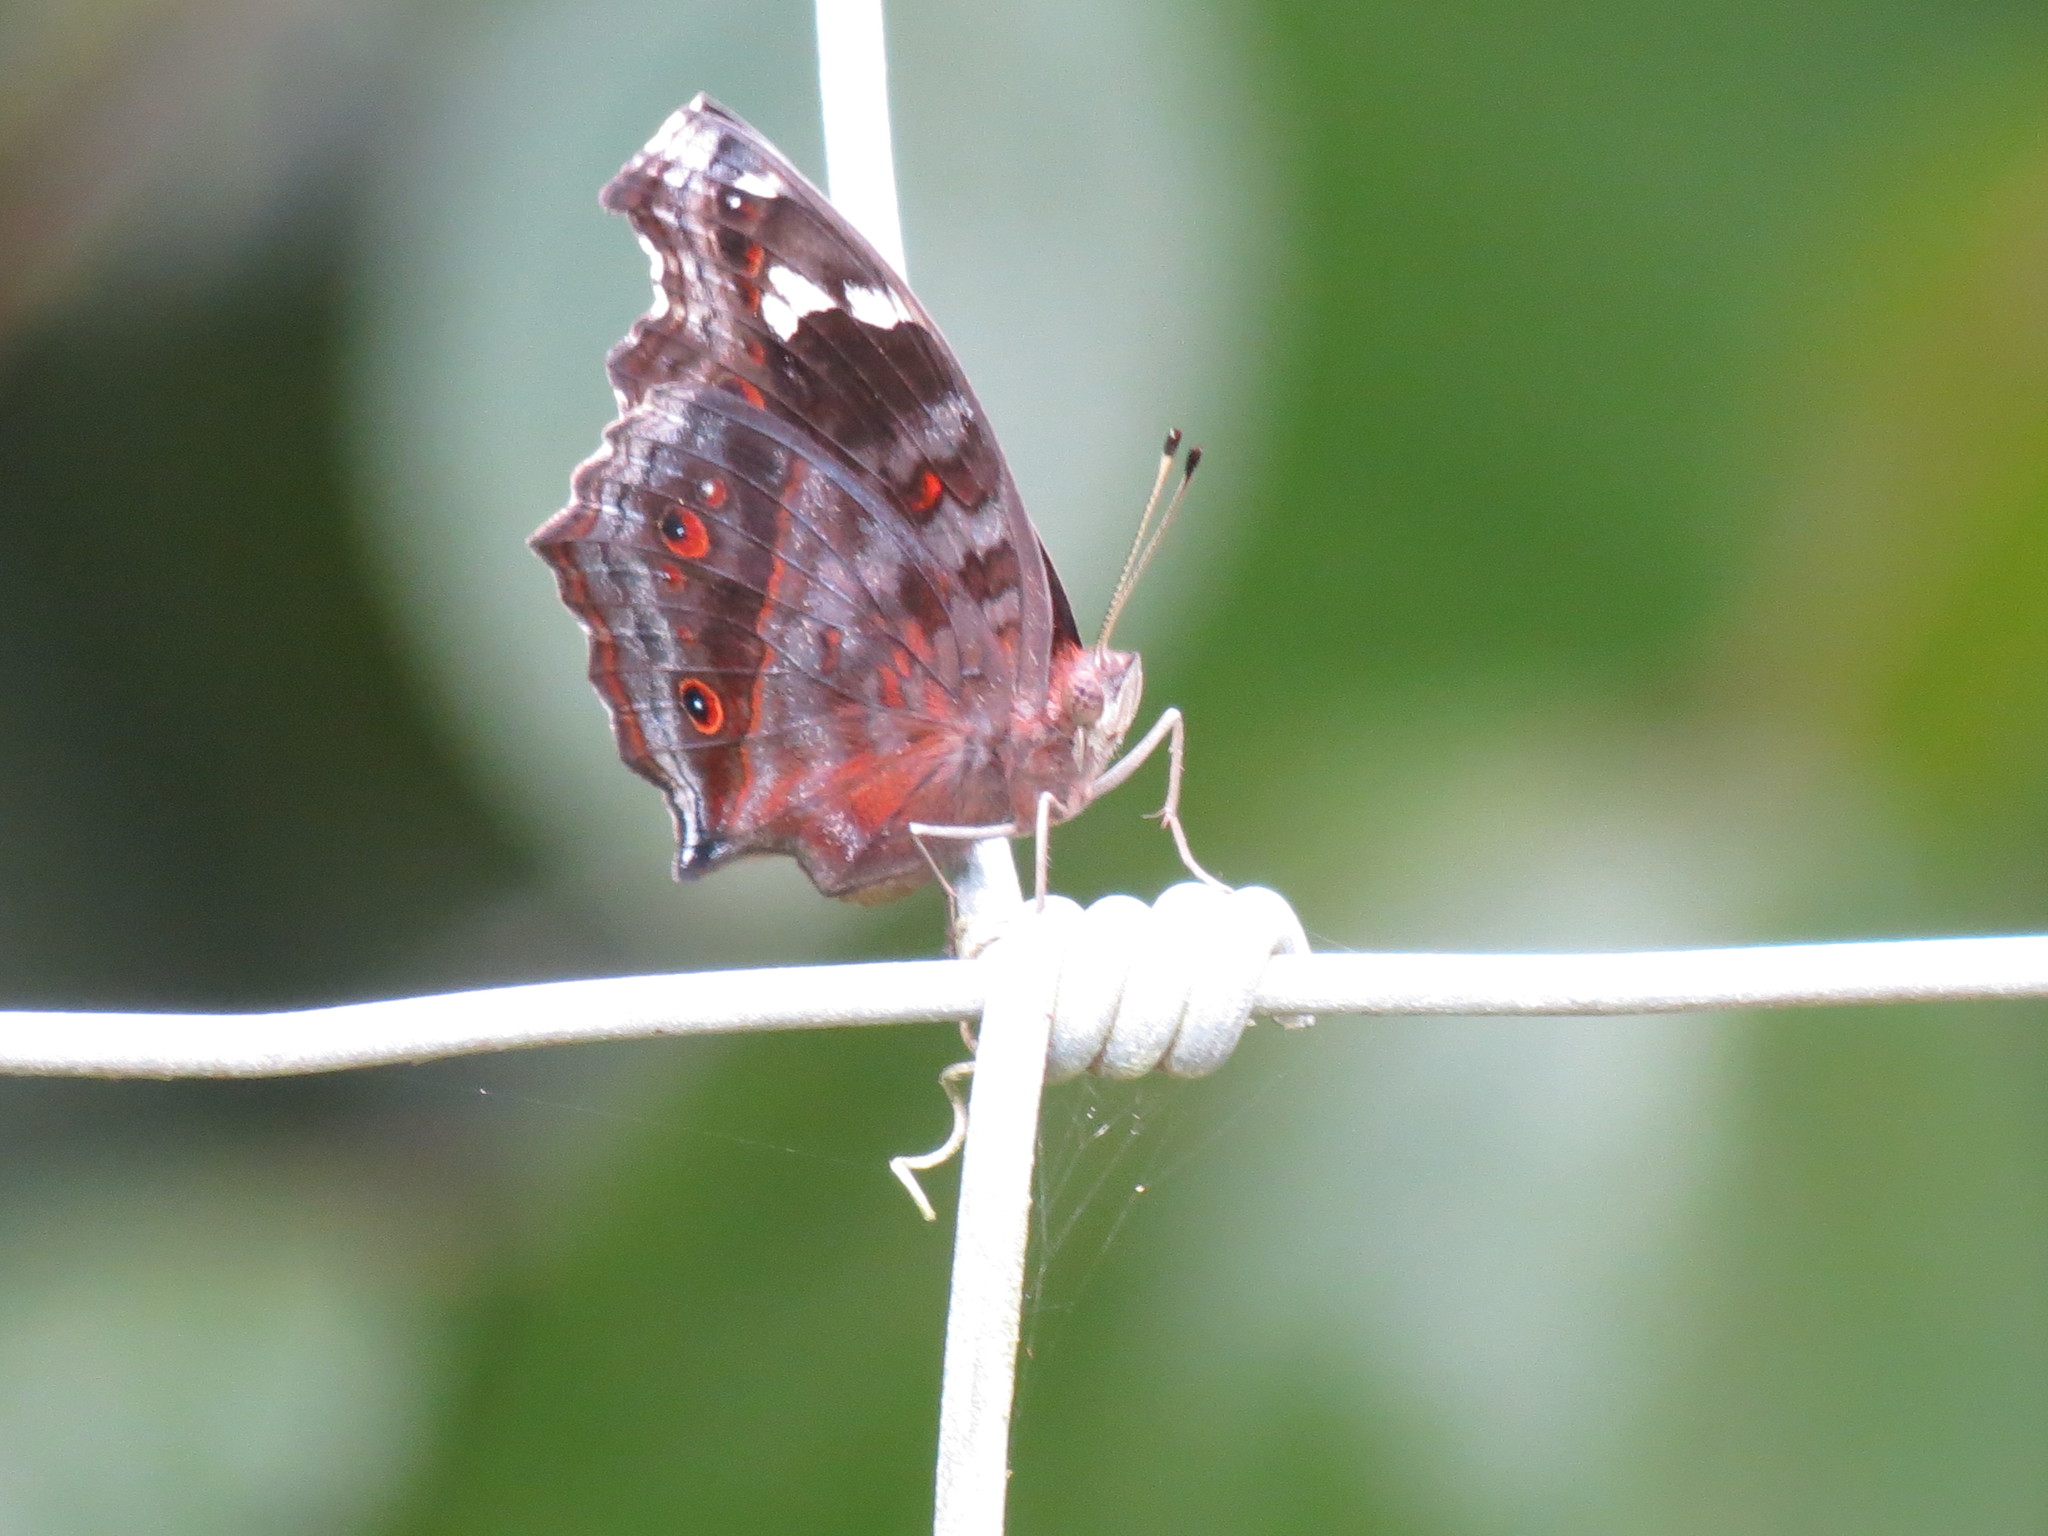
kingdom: Animalia
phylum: Arthropoda
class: Insecta
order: Lepidoptera
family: Nymphalidae
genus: Junonia
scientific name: Junonia natalica
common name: Brown pansy
